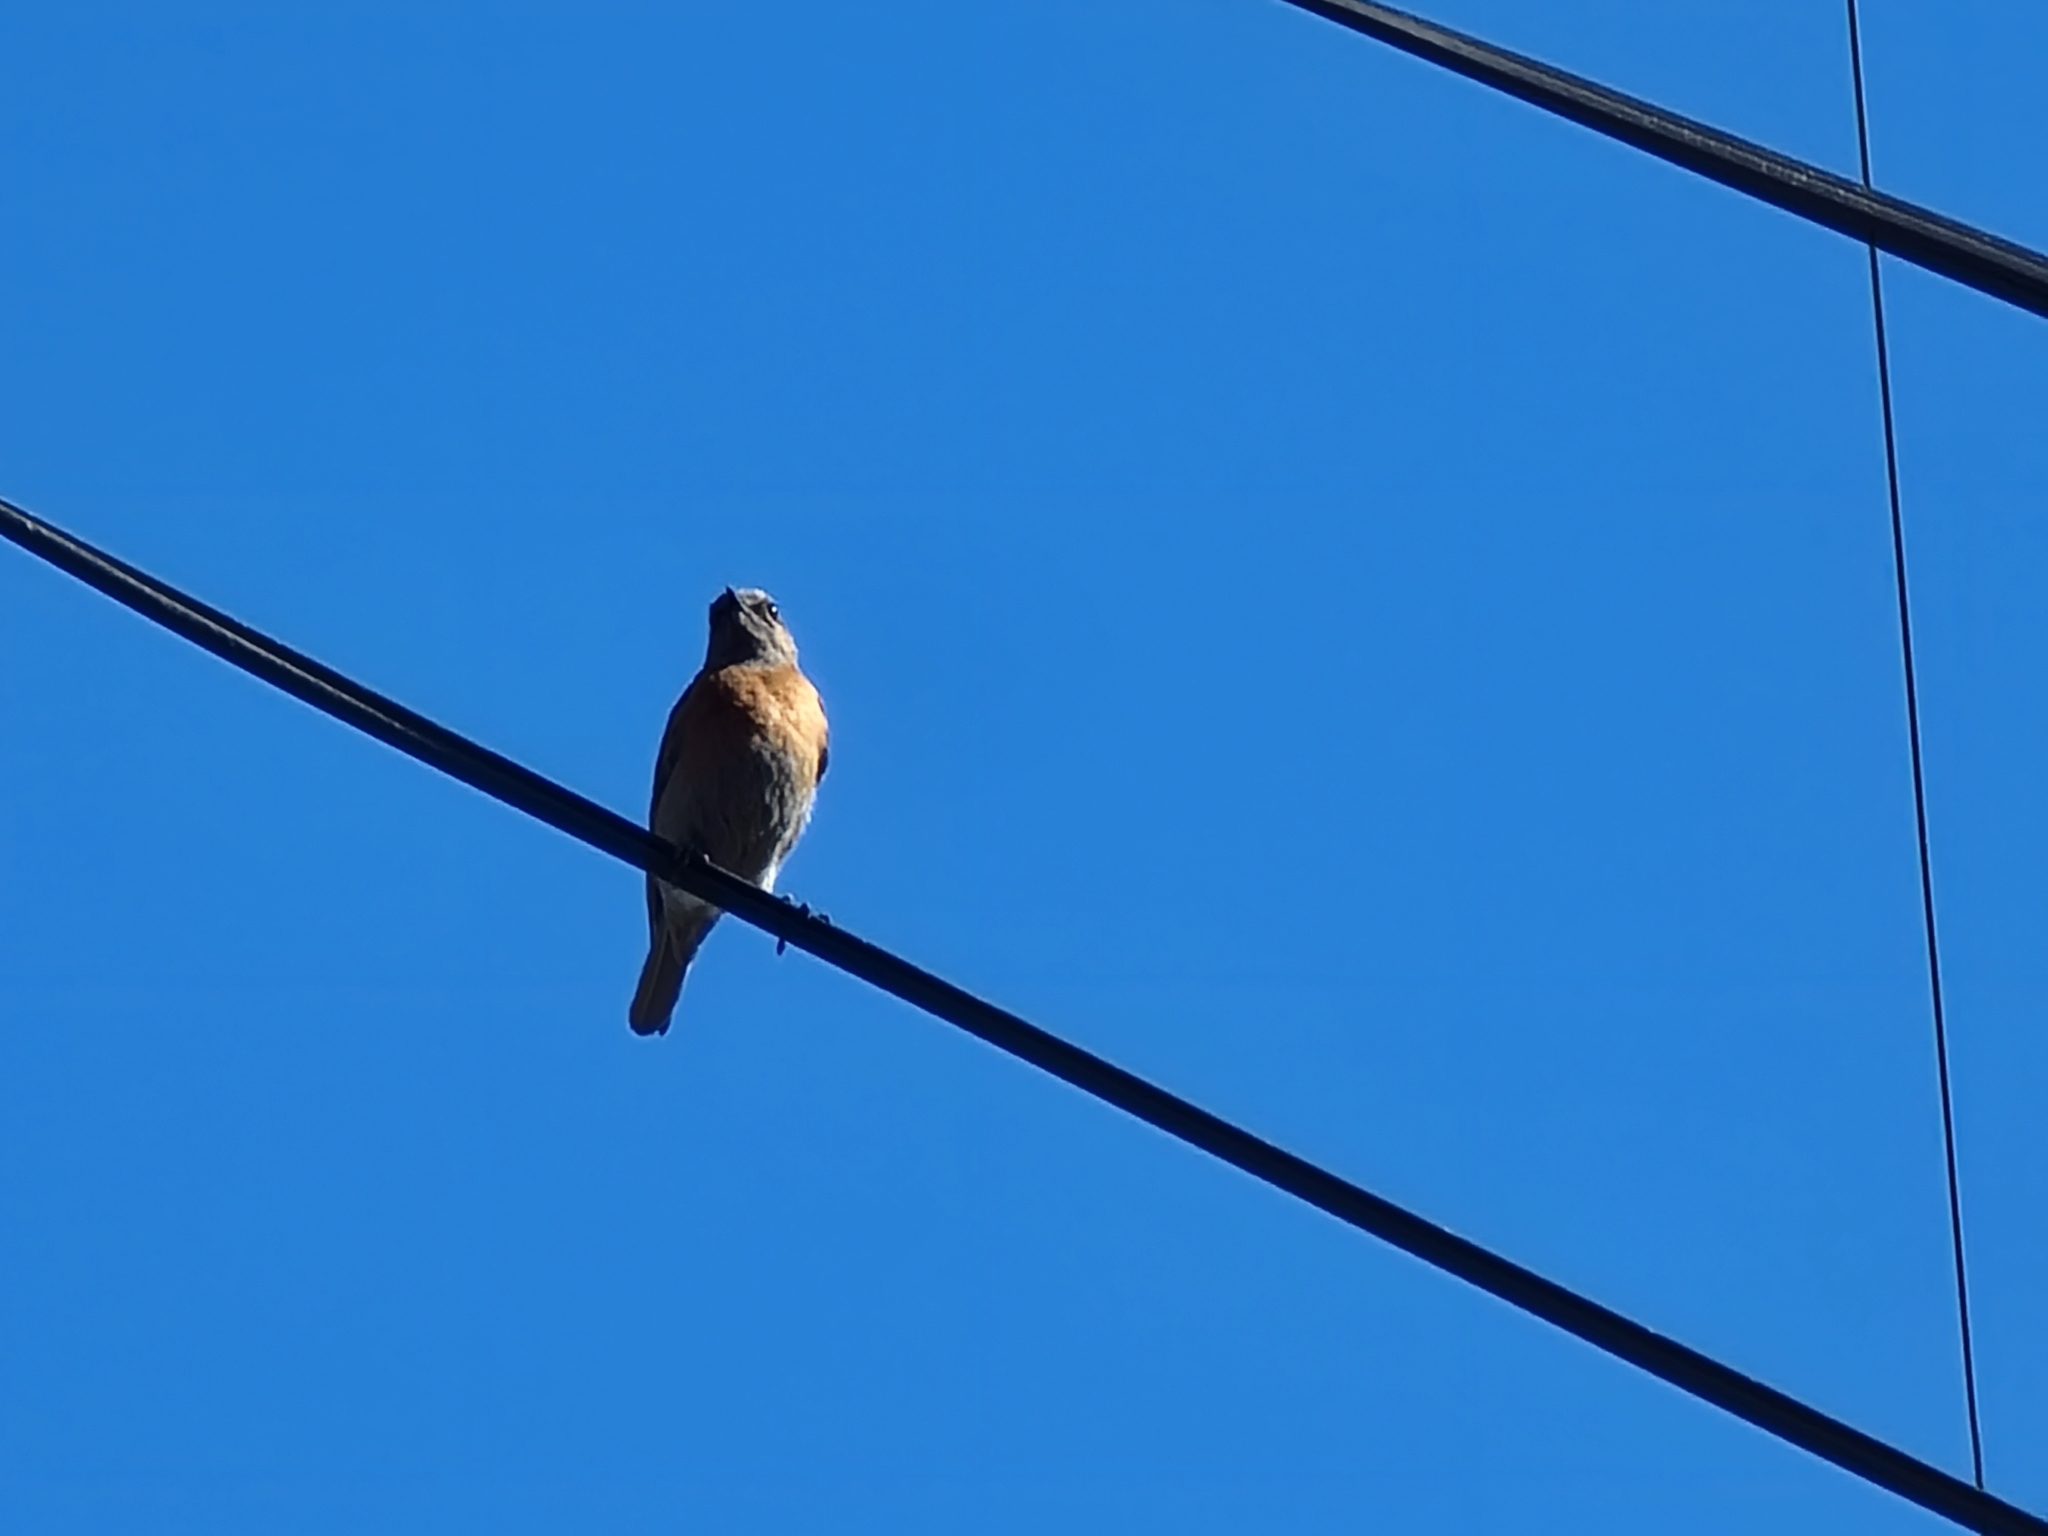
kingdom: Animalia
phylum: Chordata
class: Aves
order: Passeriformes
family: Turdidae
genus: Sialia
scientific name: Sialia mexicana
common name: Western bluebird
